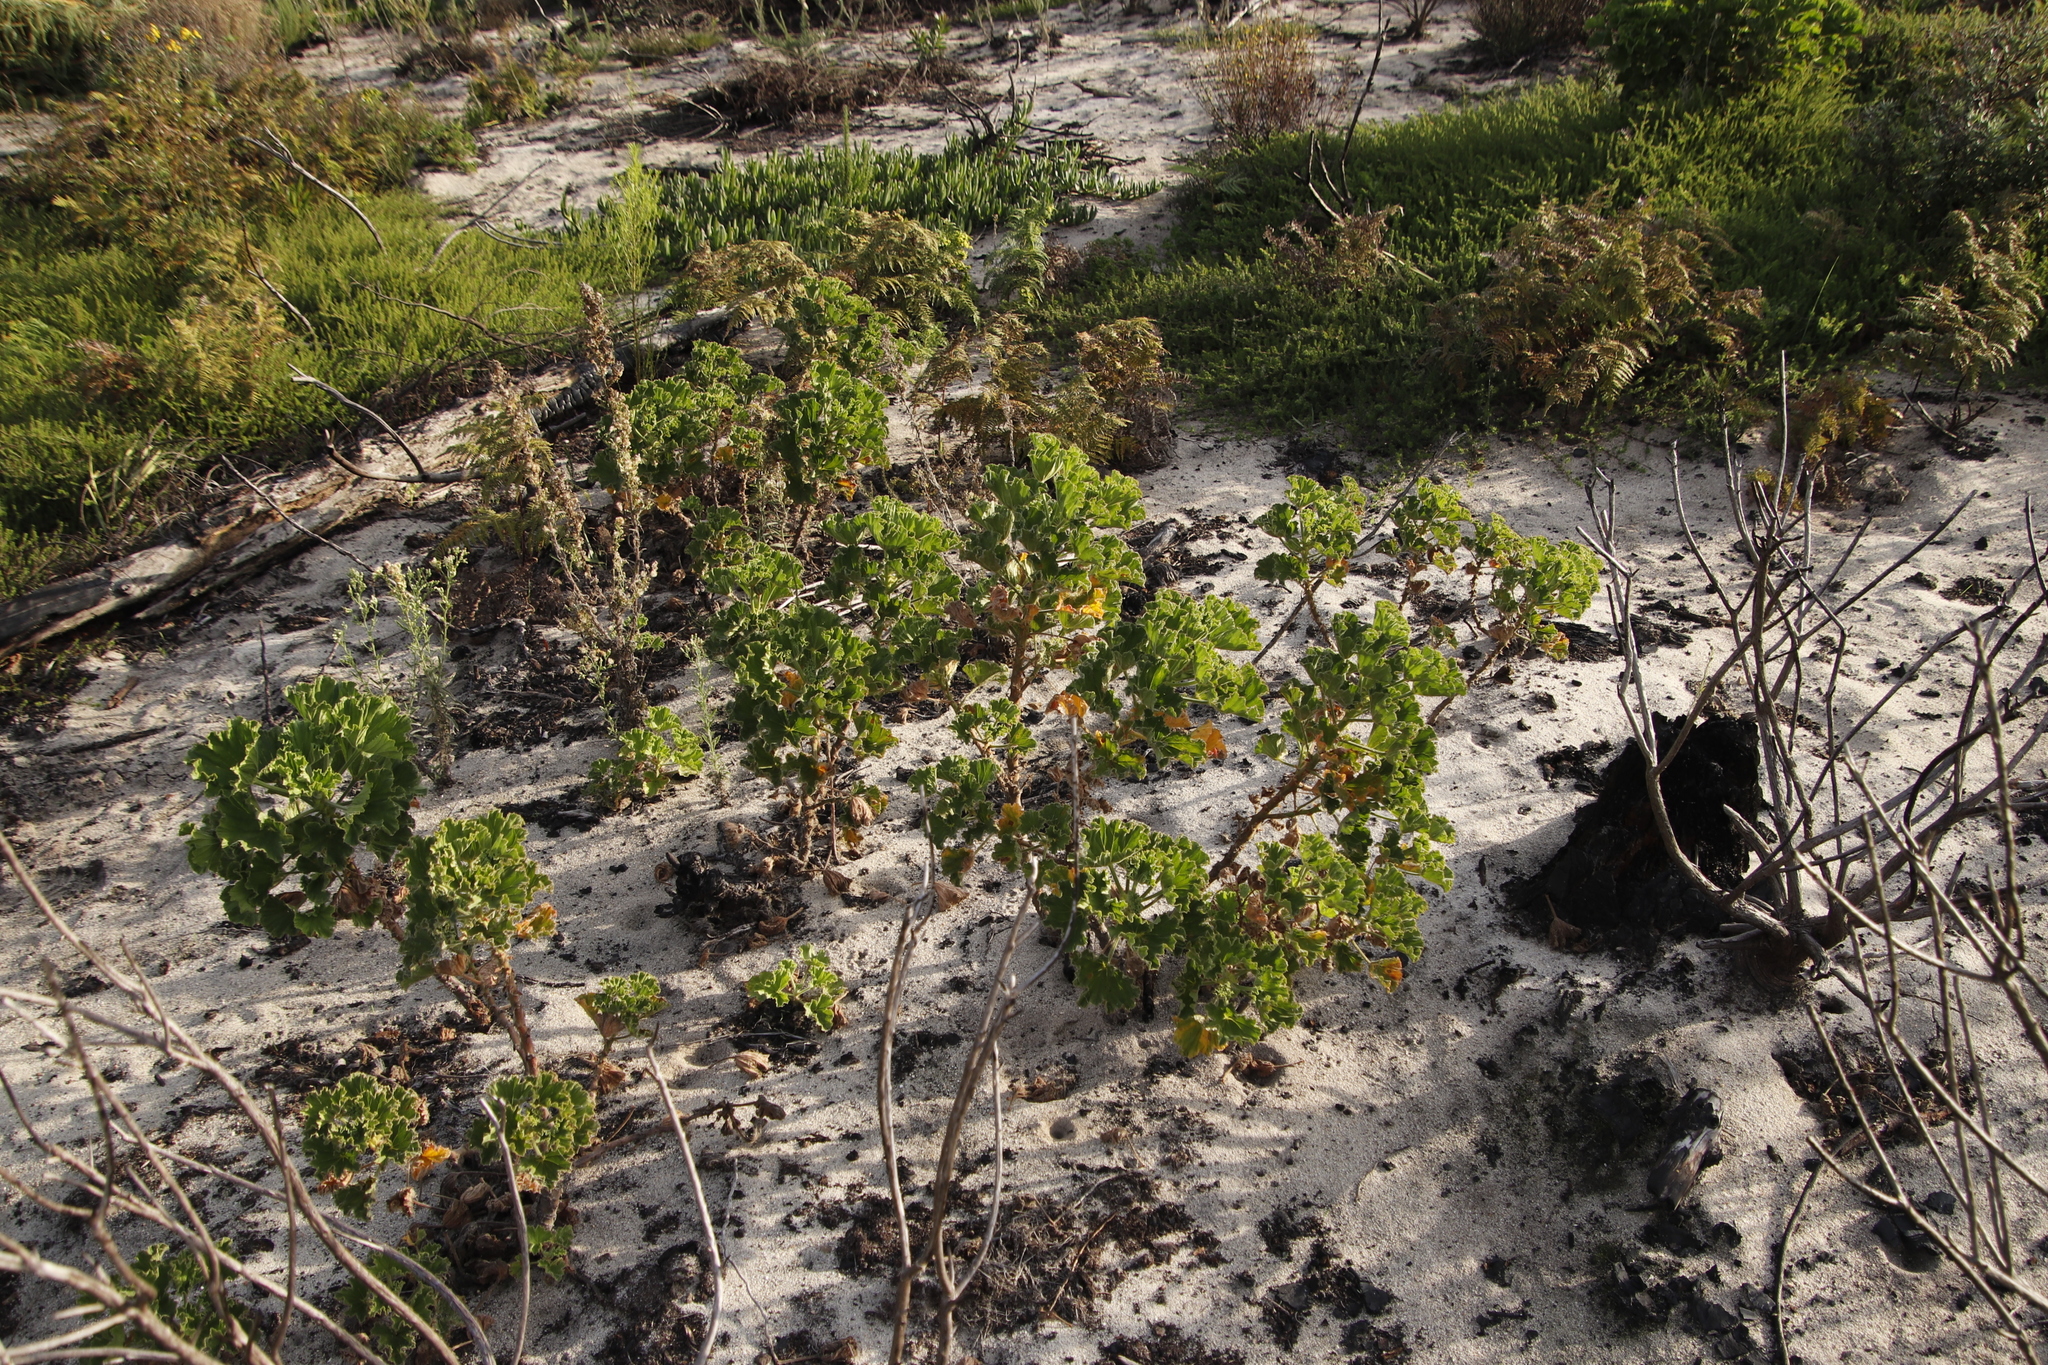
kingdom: Plantae
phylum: Tracheophyta
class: Magnoliopsida
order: Geraniales
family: Geraniaceae
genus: Pelargonium
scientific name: Pelargonium cucullatum
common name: Tree pelargonium
